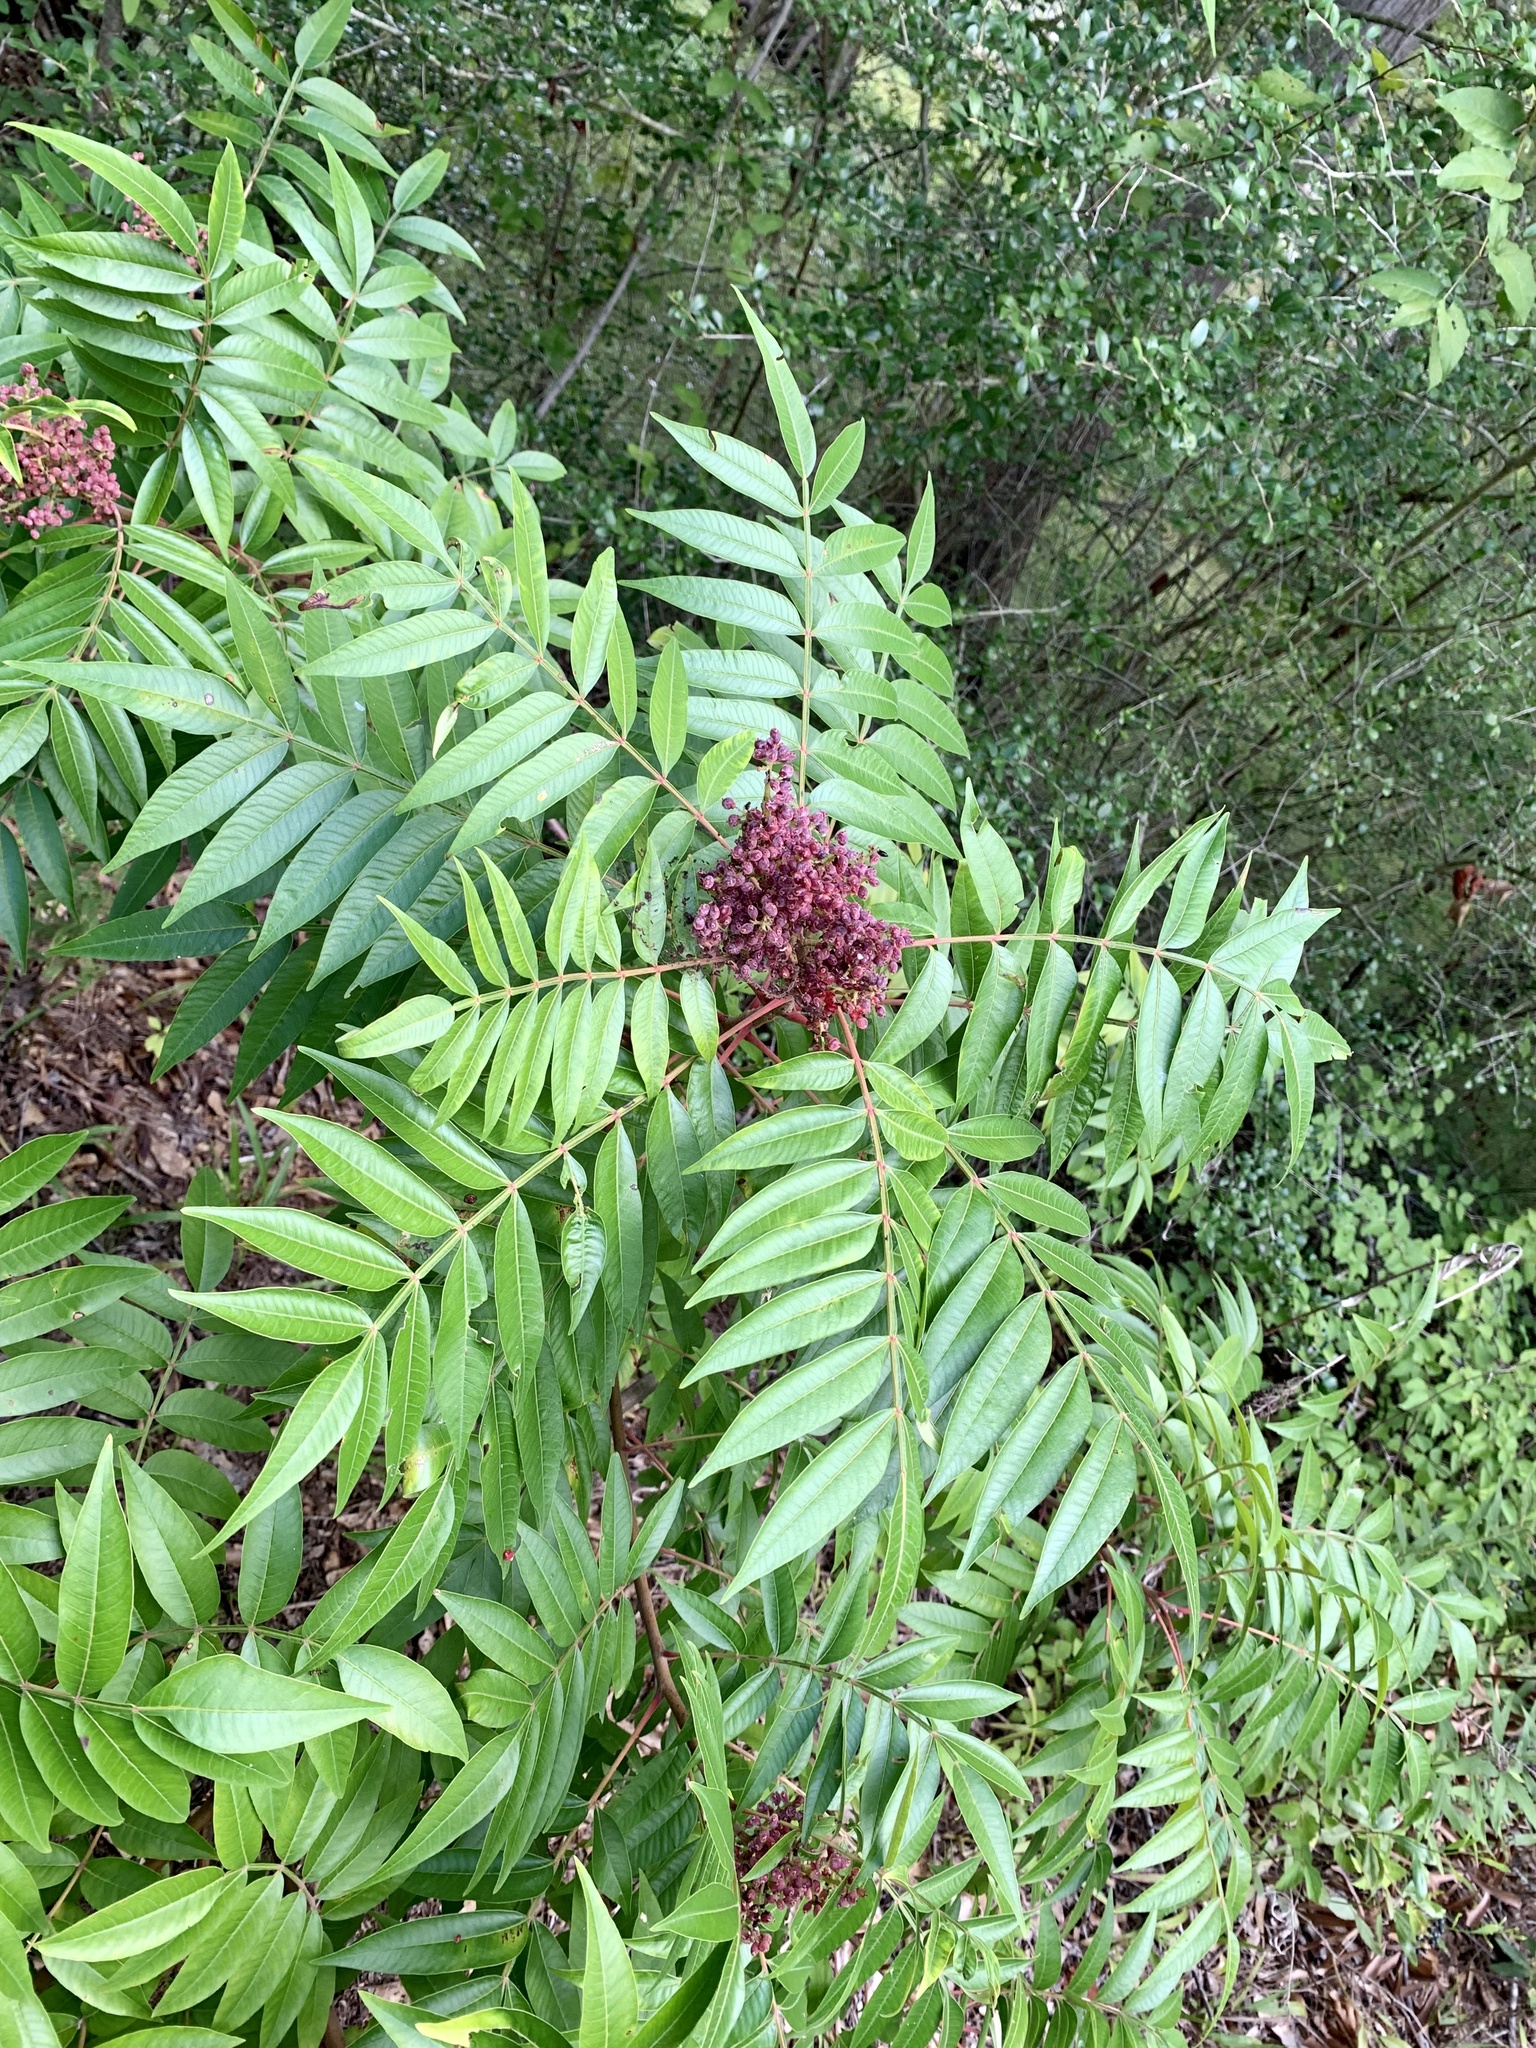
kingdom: Plantae
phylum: Tracheophyta
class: Magnoliopsida
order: Sapindales
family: Anacardiaceae
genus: Rhus
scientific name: Rhus copallina
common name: Shining sumac
